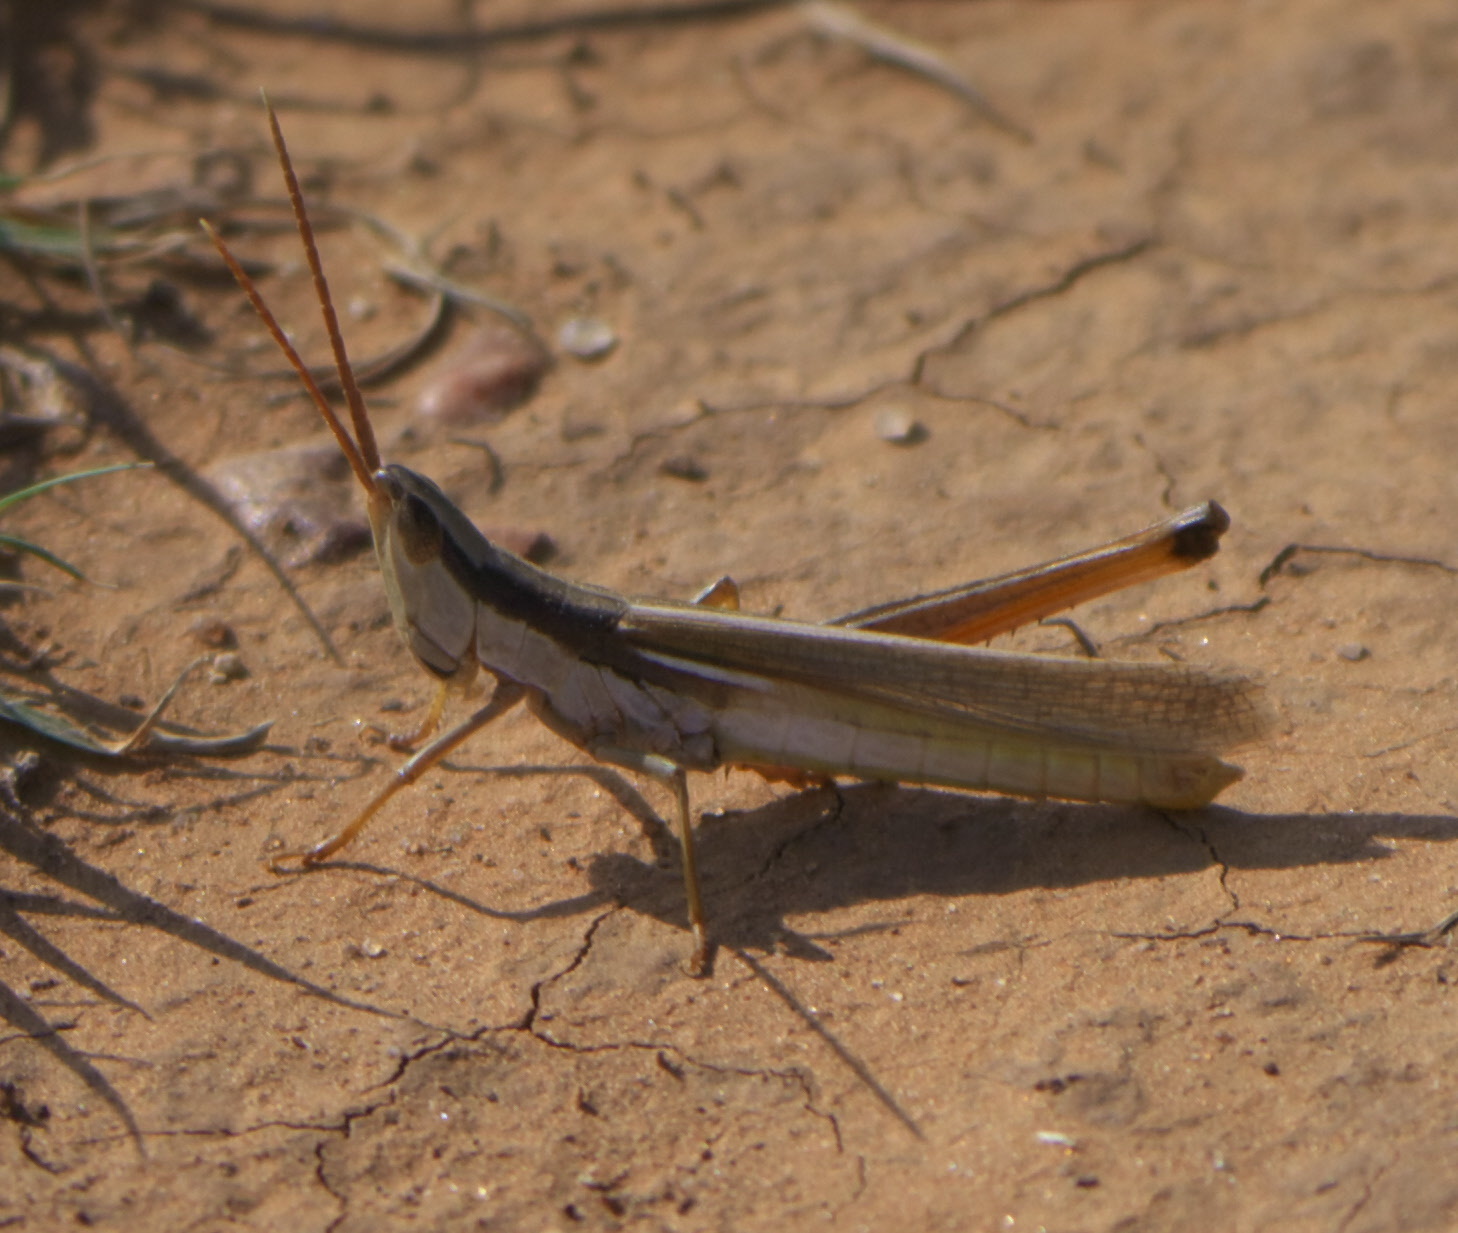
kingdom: Animalia
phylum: Arthropoda
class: Insecta
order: Orthoptera
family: Acrididae
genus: Mermiria
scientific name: Mermiria bivittata
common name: Two-striped mermiria grasshopper
